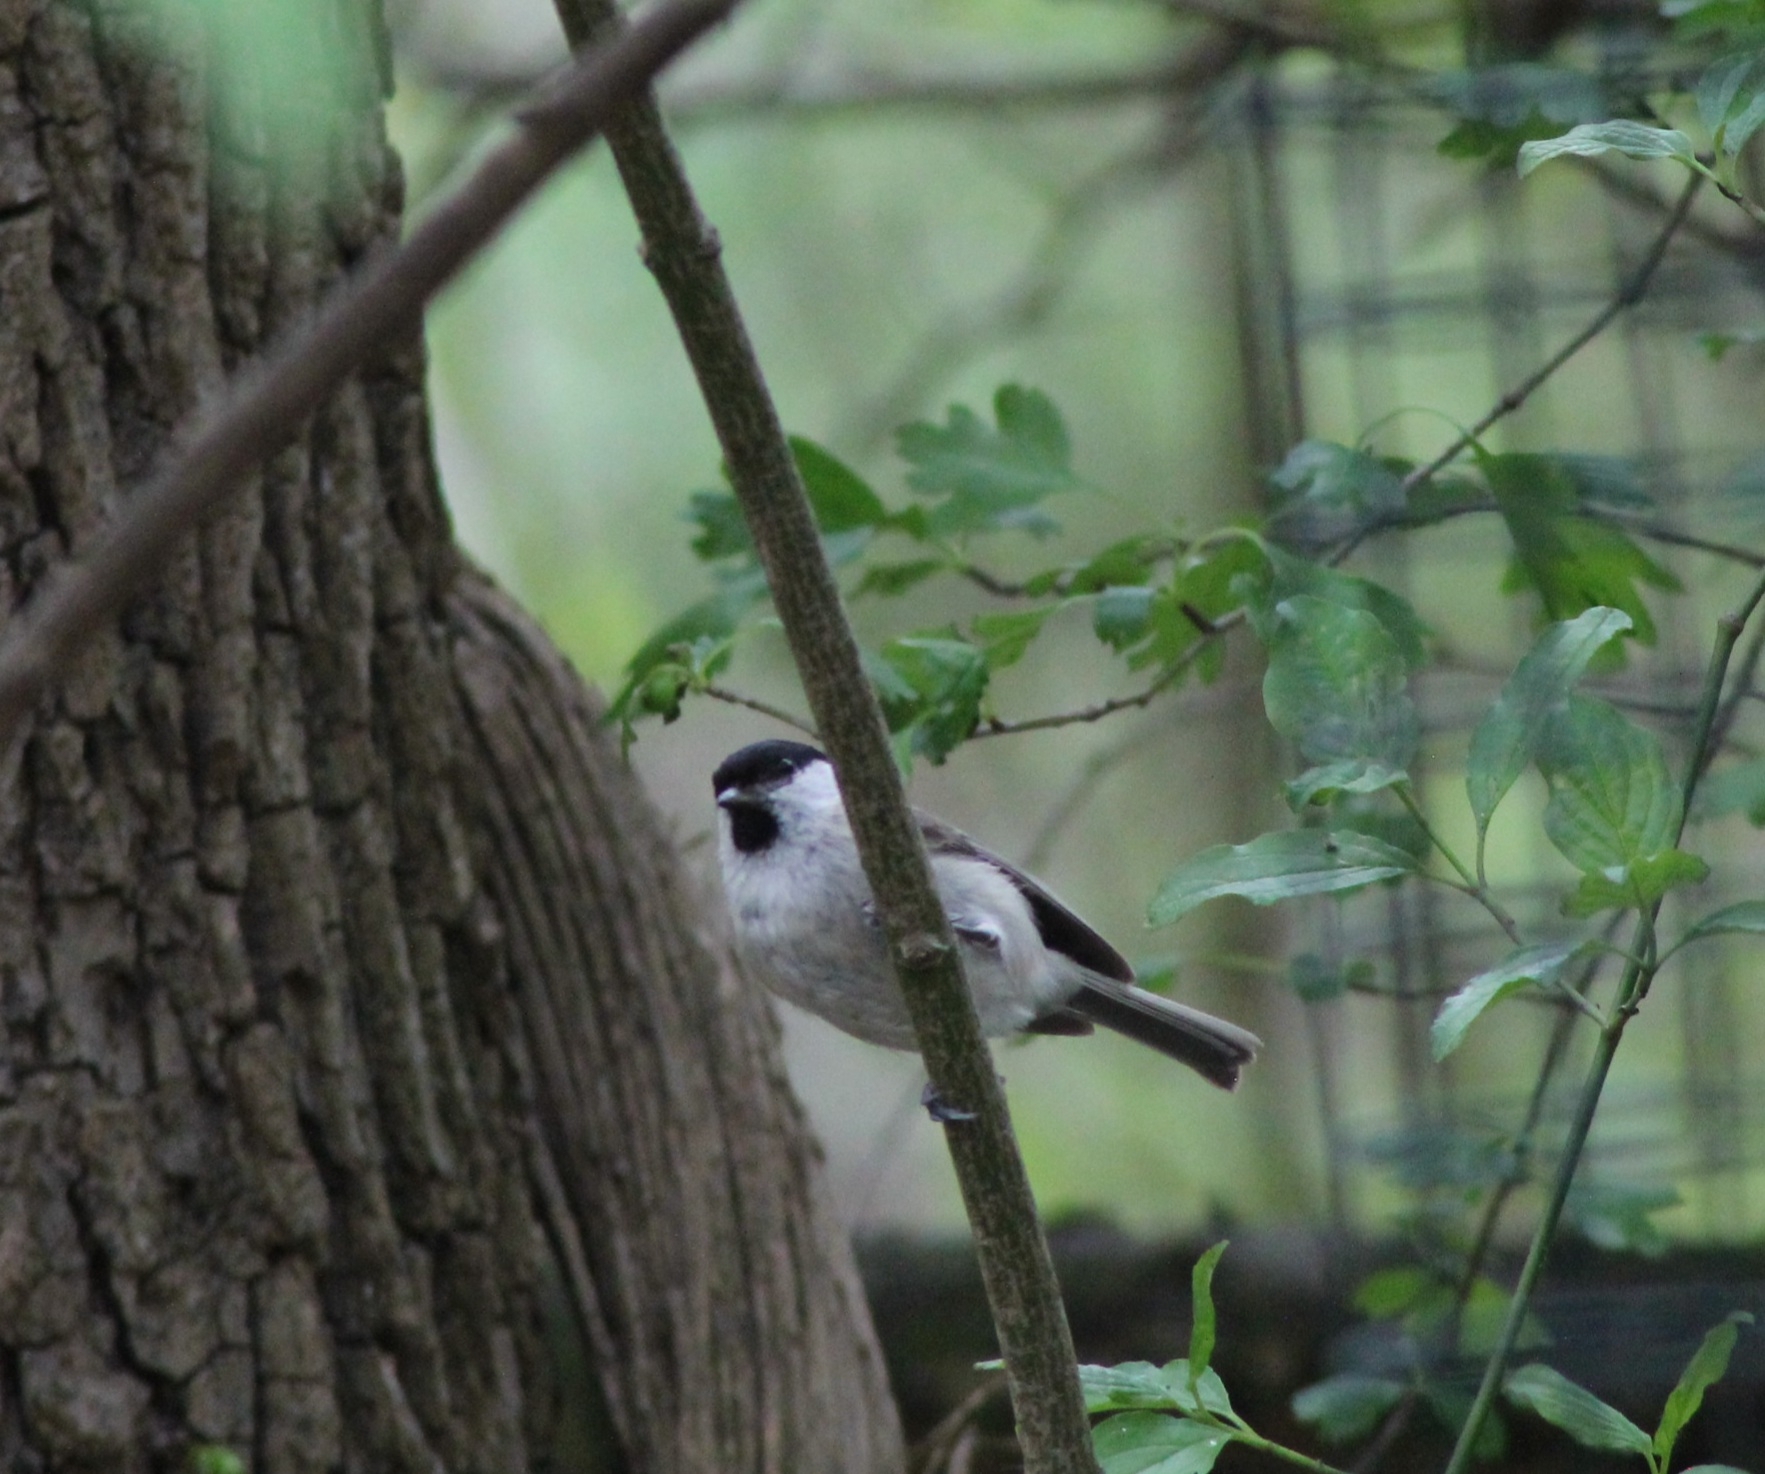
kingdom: Animalia
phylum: Chordata
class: Aves
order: Passeriformes
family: Paridae
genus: Poecile
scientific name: Poecile palustris
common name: Marsh tit
